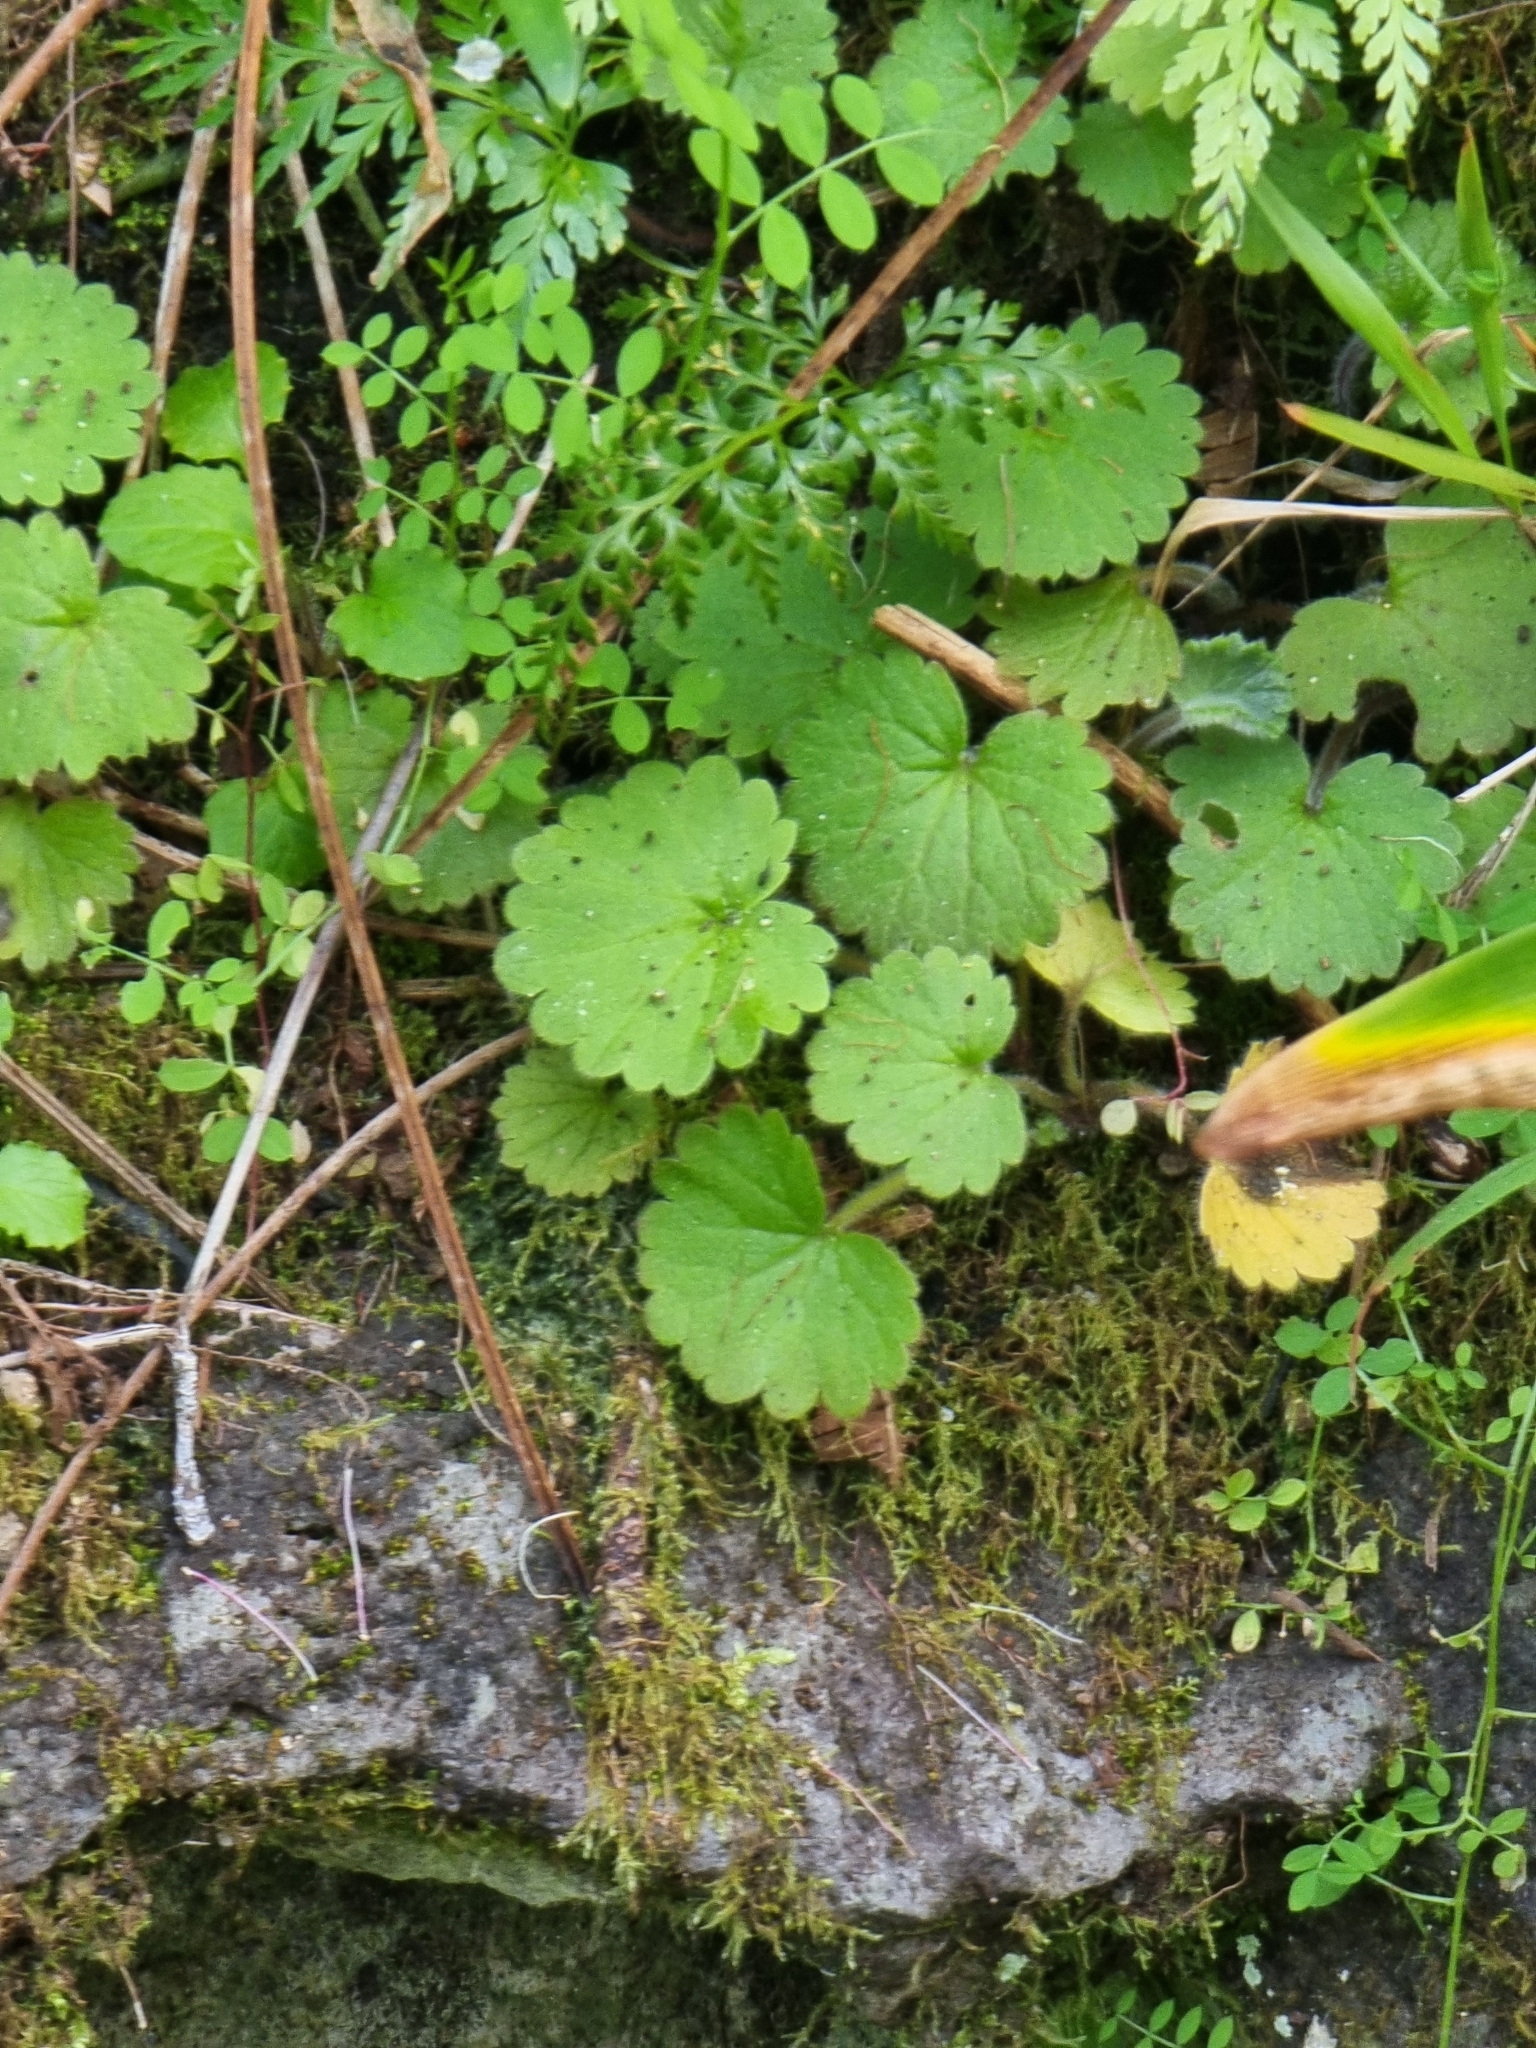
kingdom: Plantae
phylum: Tracheophyta
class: Magnoliopsida
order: Lamiales
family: Plantaginaceae
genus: Sibthorpia
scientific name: Sibthorpia peregrina
